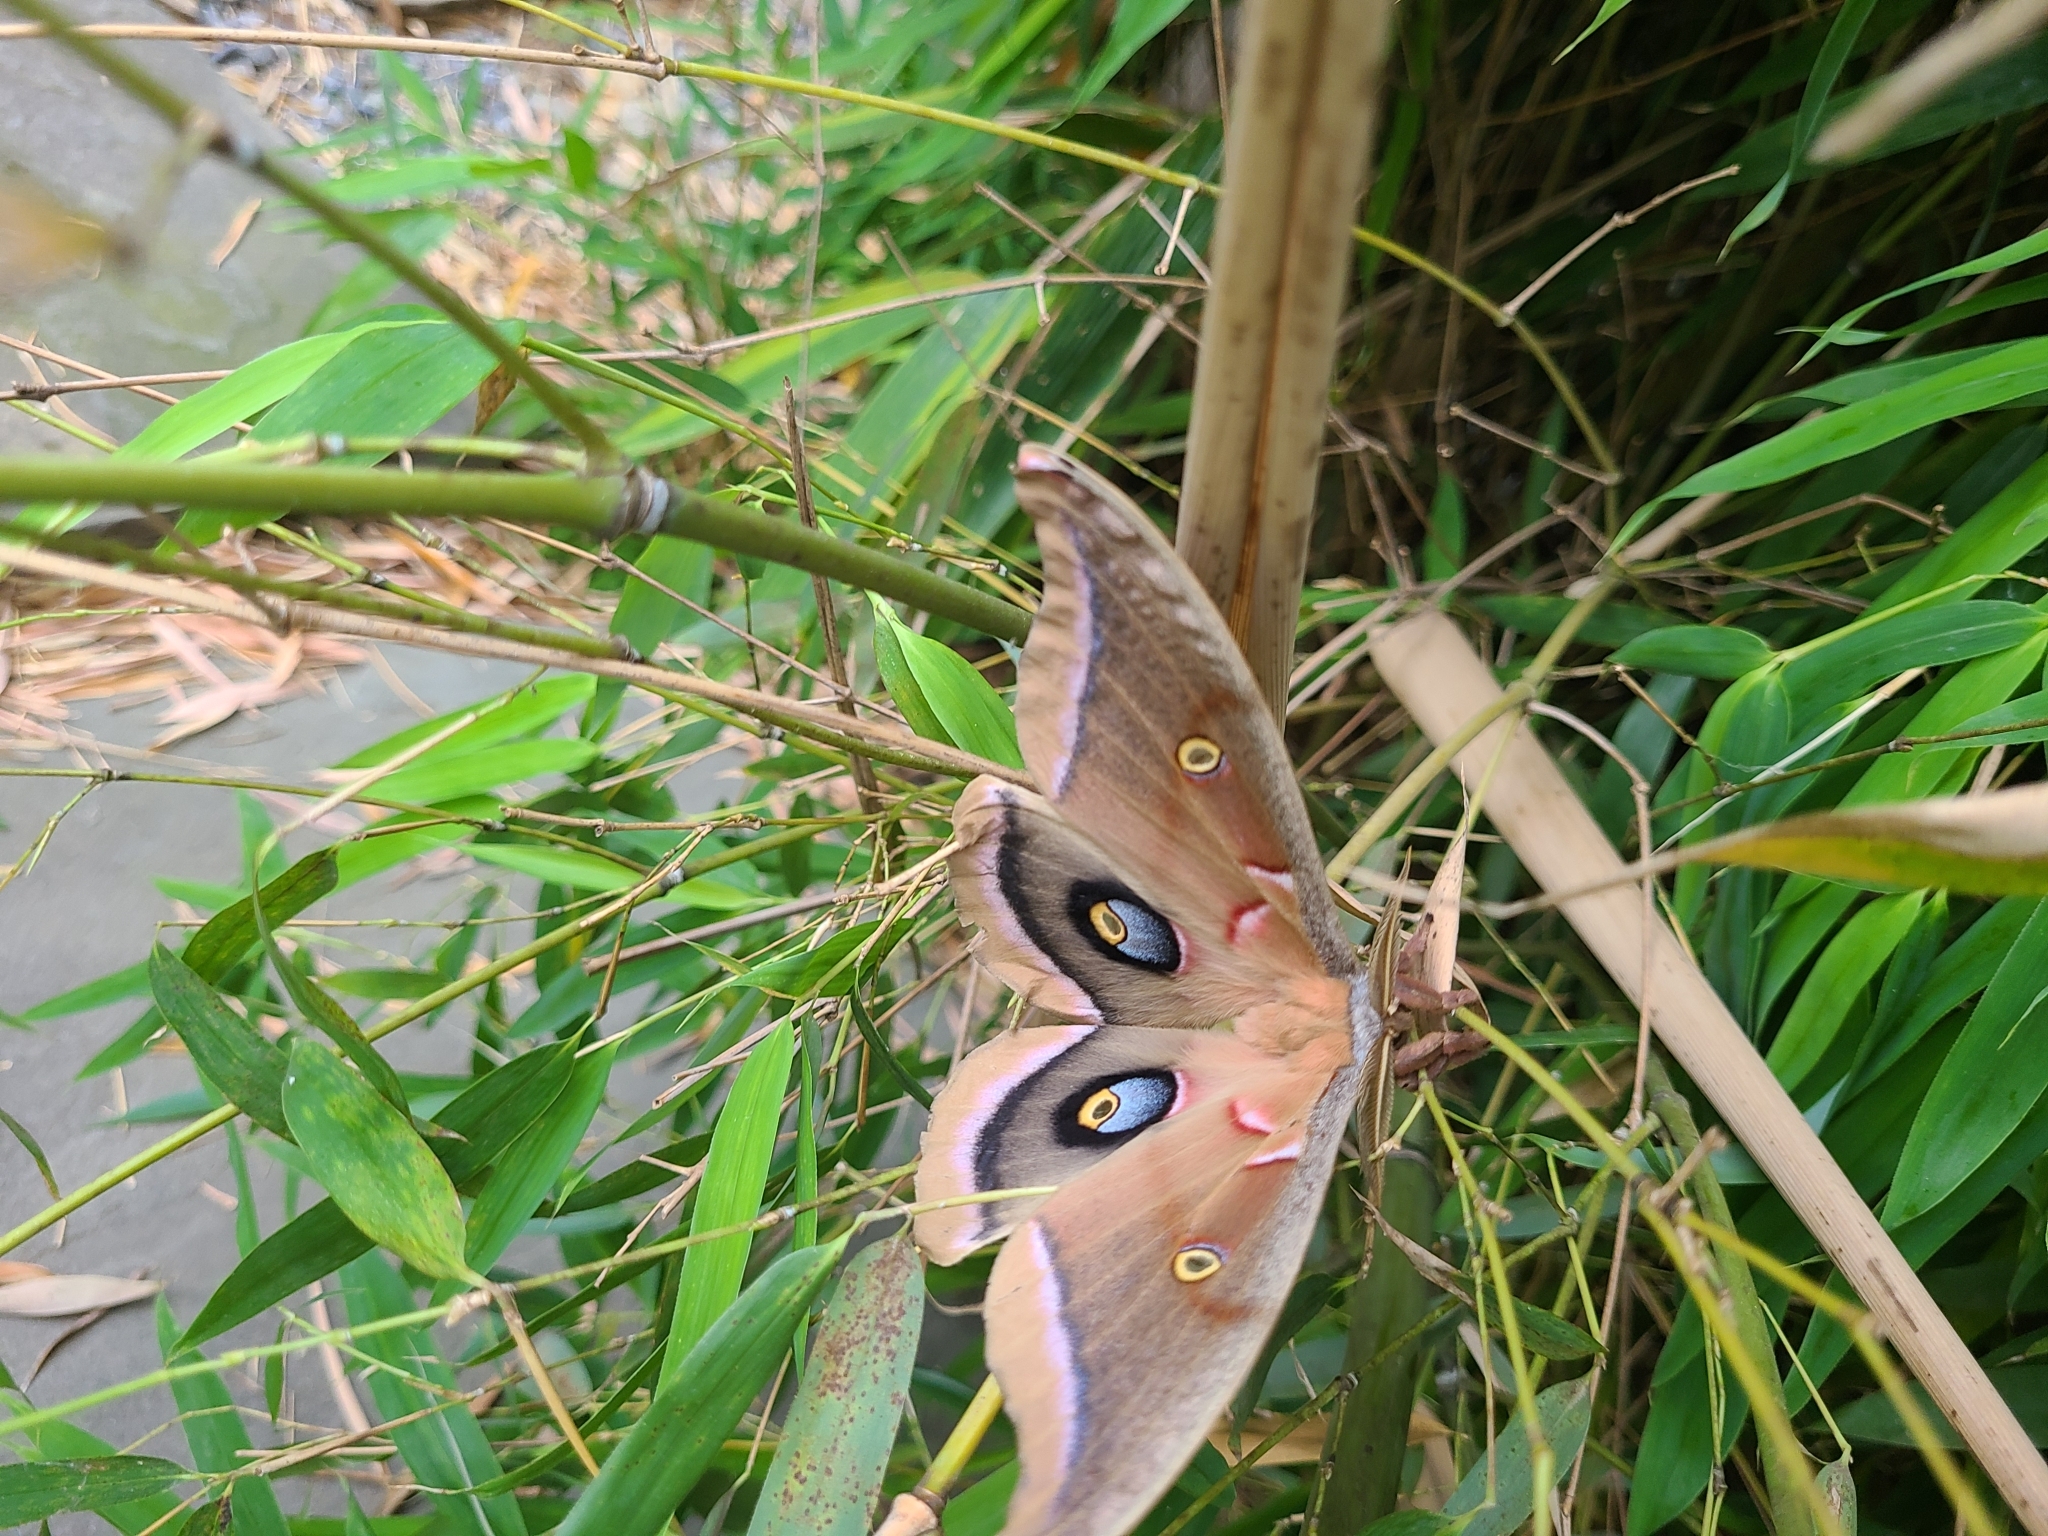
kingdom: Animalia
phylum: Arthropoda
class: Insecta
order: Lepidoptera
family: Saturniidae
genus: Antheraea
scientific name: Antheraea polyphemus
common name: Polyphemus moth
